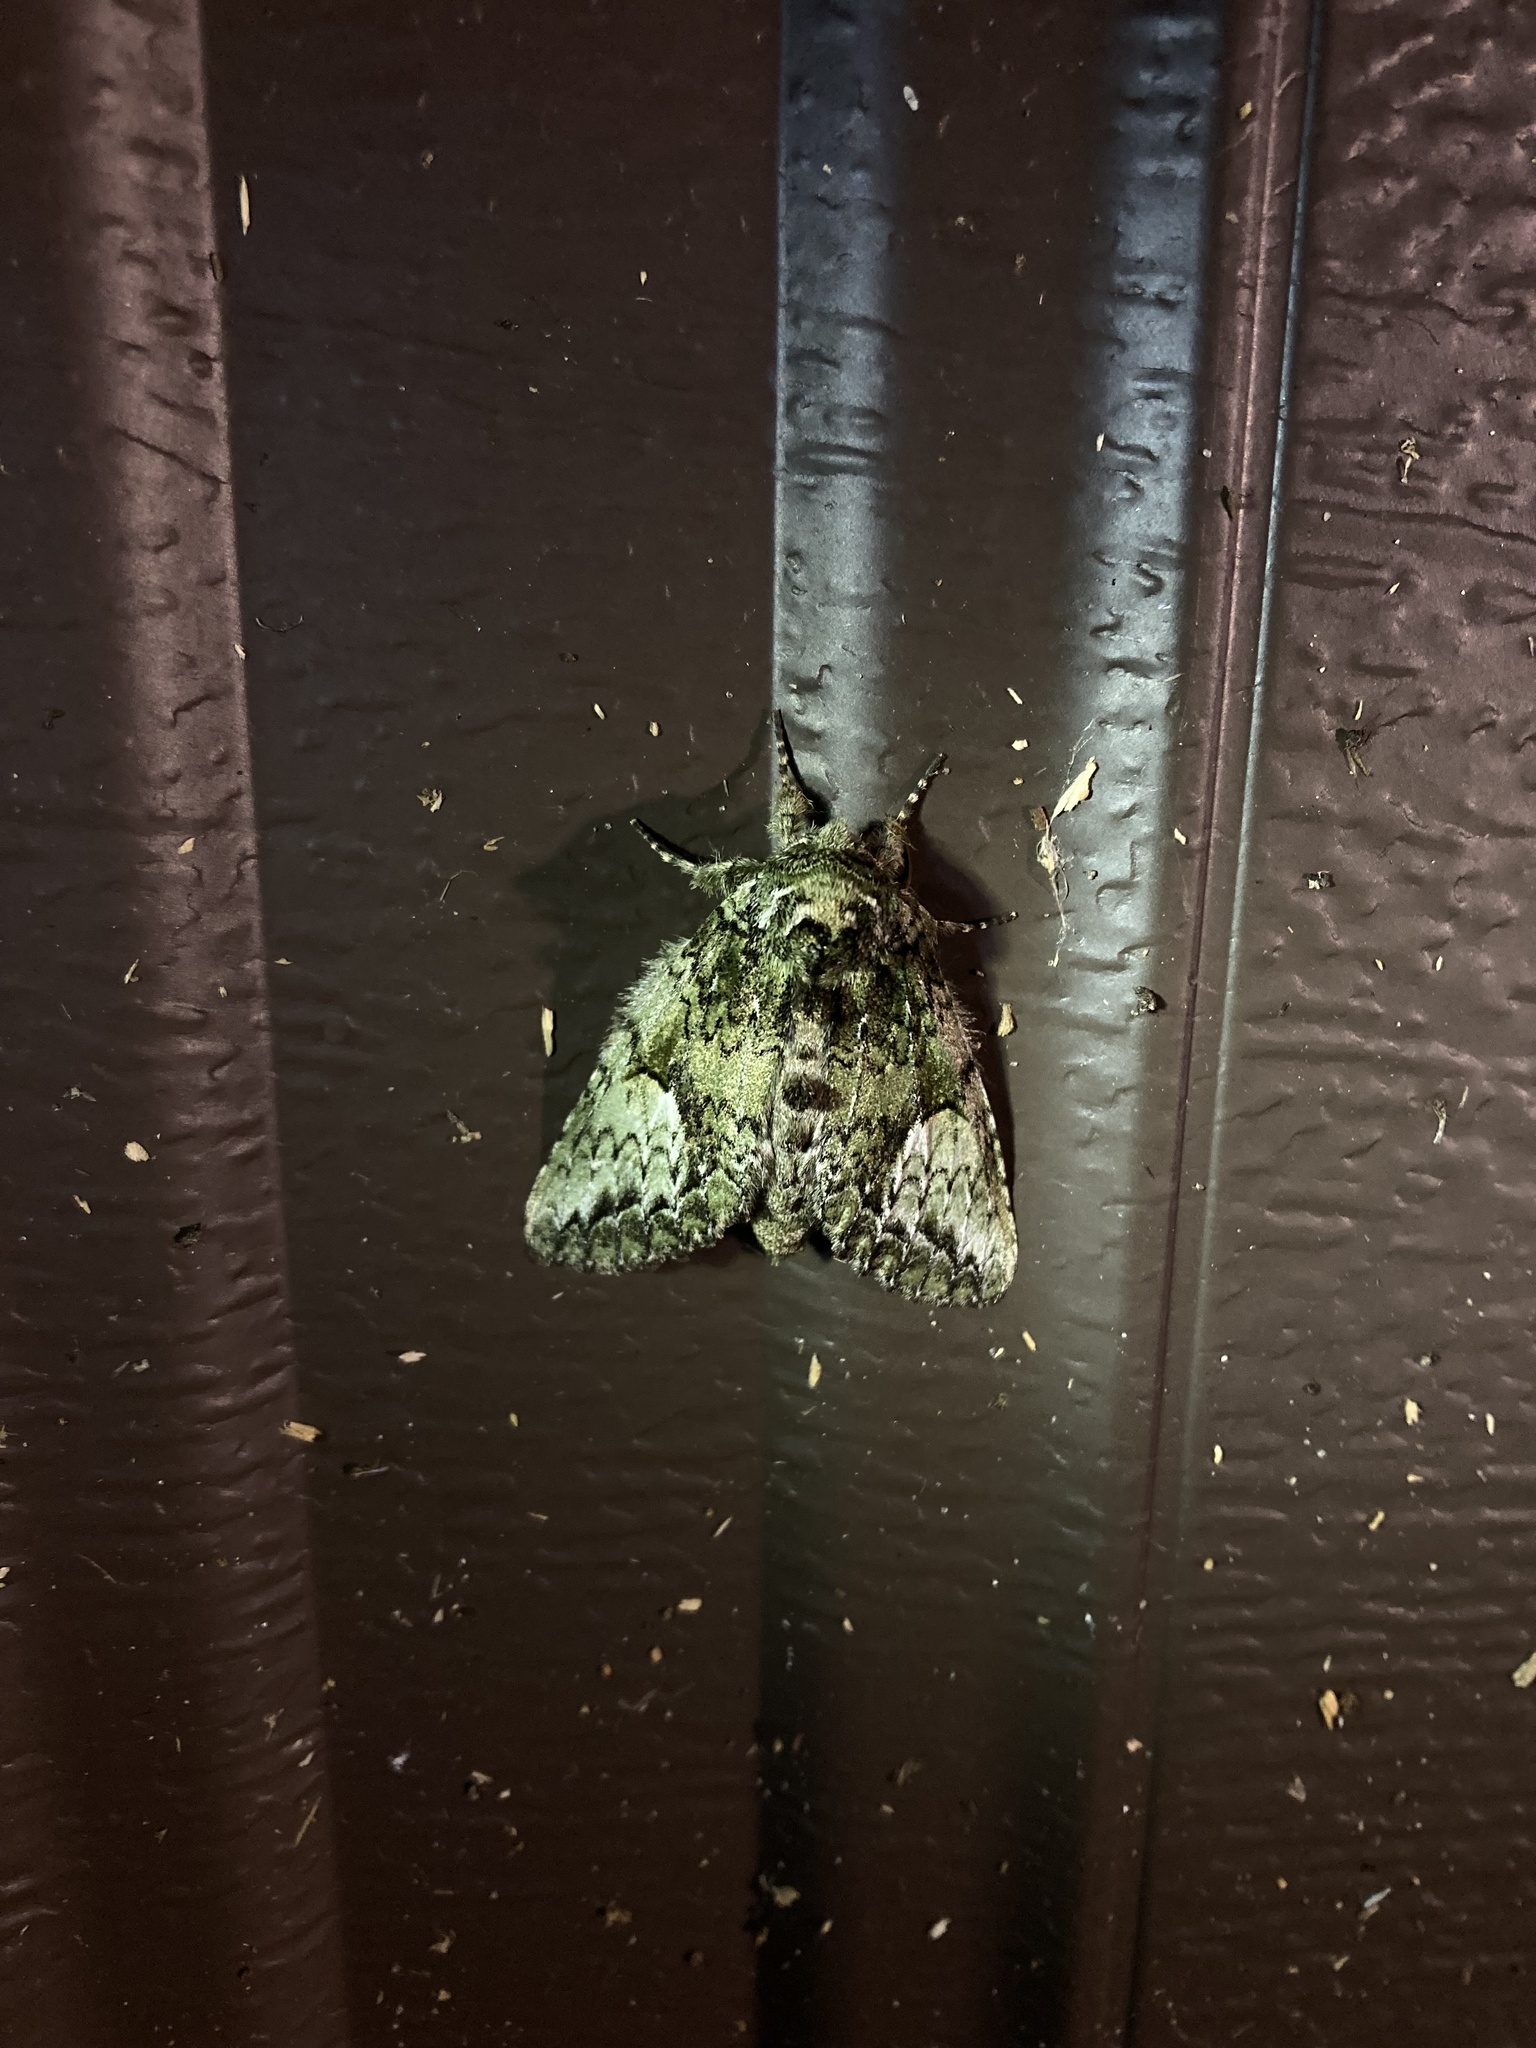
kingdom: Animalia
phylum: Arthropoda
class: Insecta
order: Lepidoptera
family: Notodontidae
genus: Heterocampa
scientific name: Heterocampa
